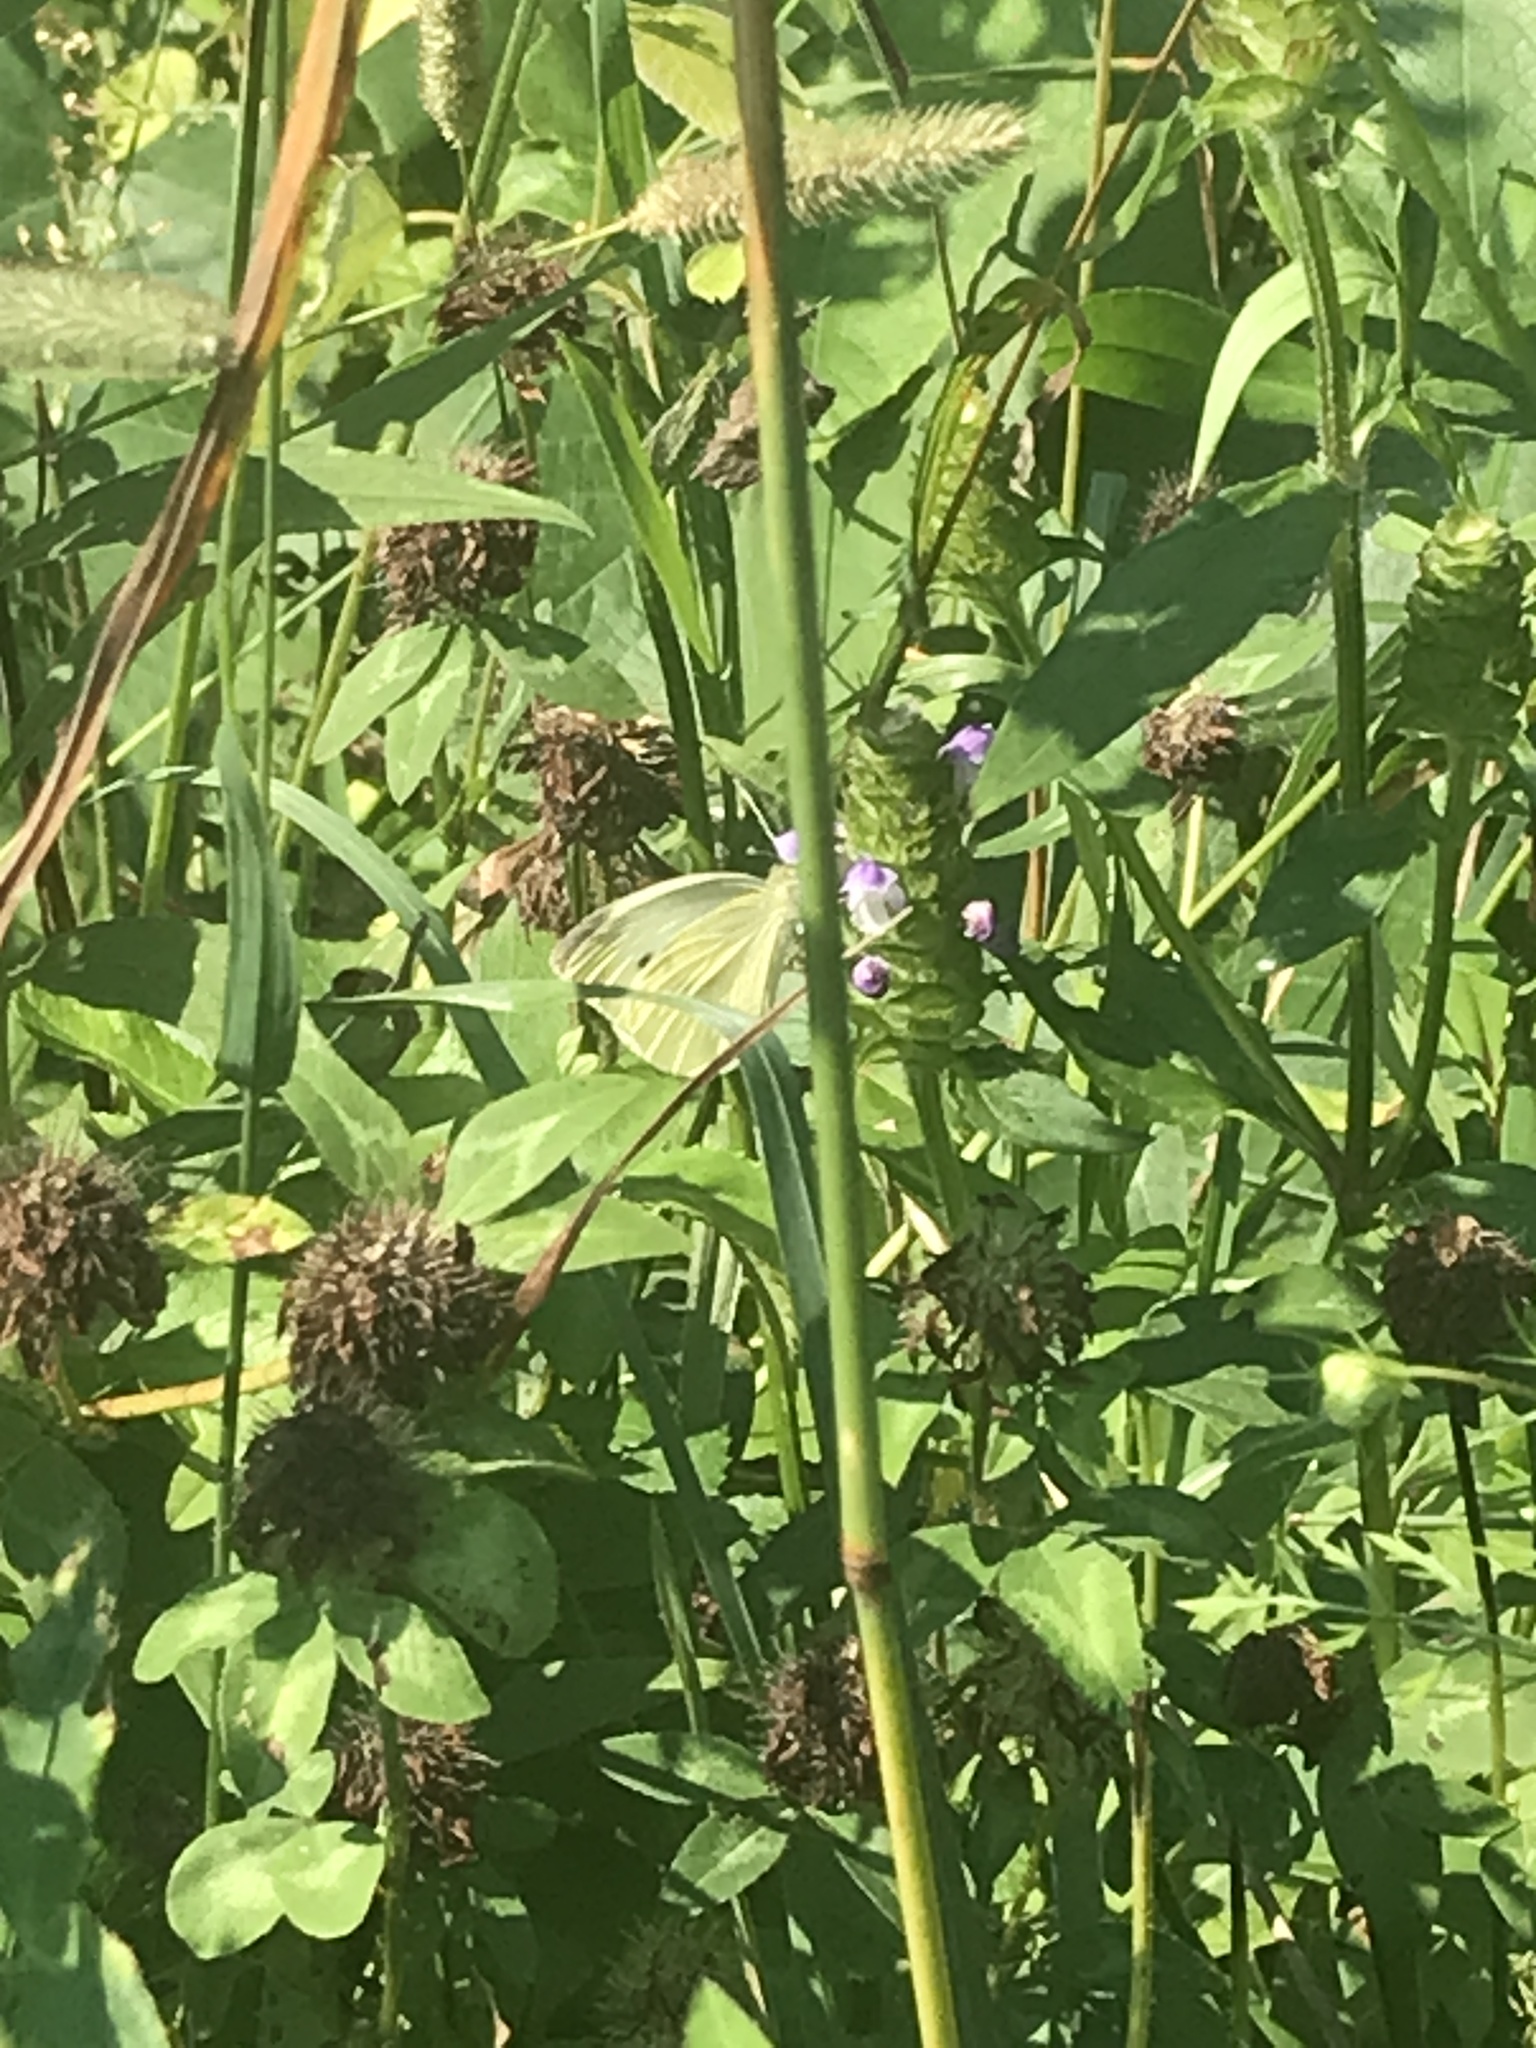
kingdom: Animalia
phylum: Arthropoda
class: Insecta
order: Lepidoptera
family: Pieridae
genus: Pieris
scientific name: Pieris rapae
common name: Small white
